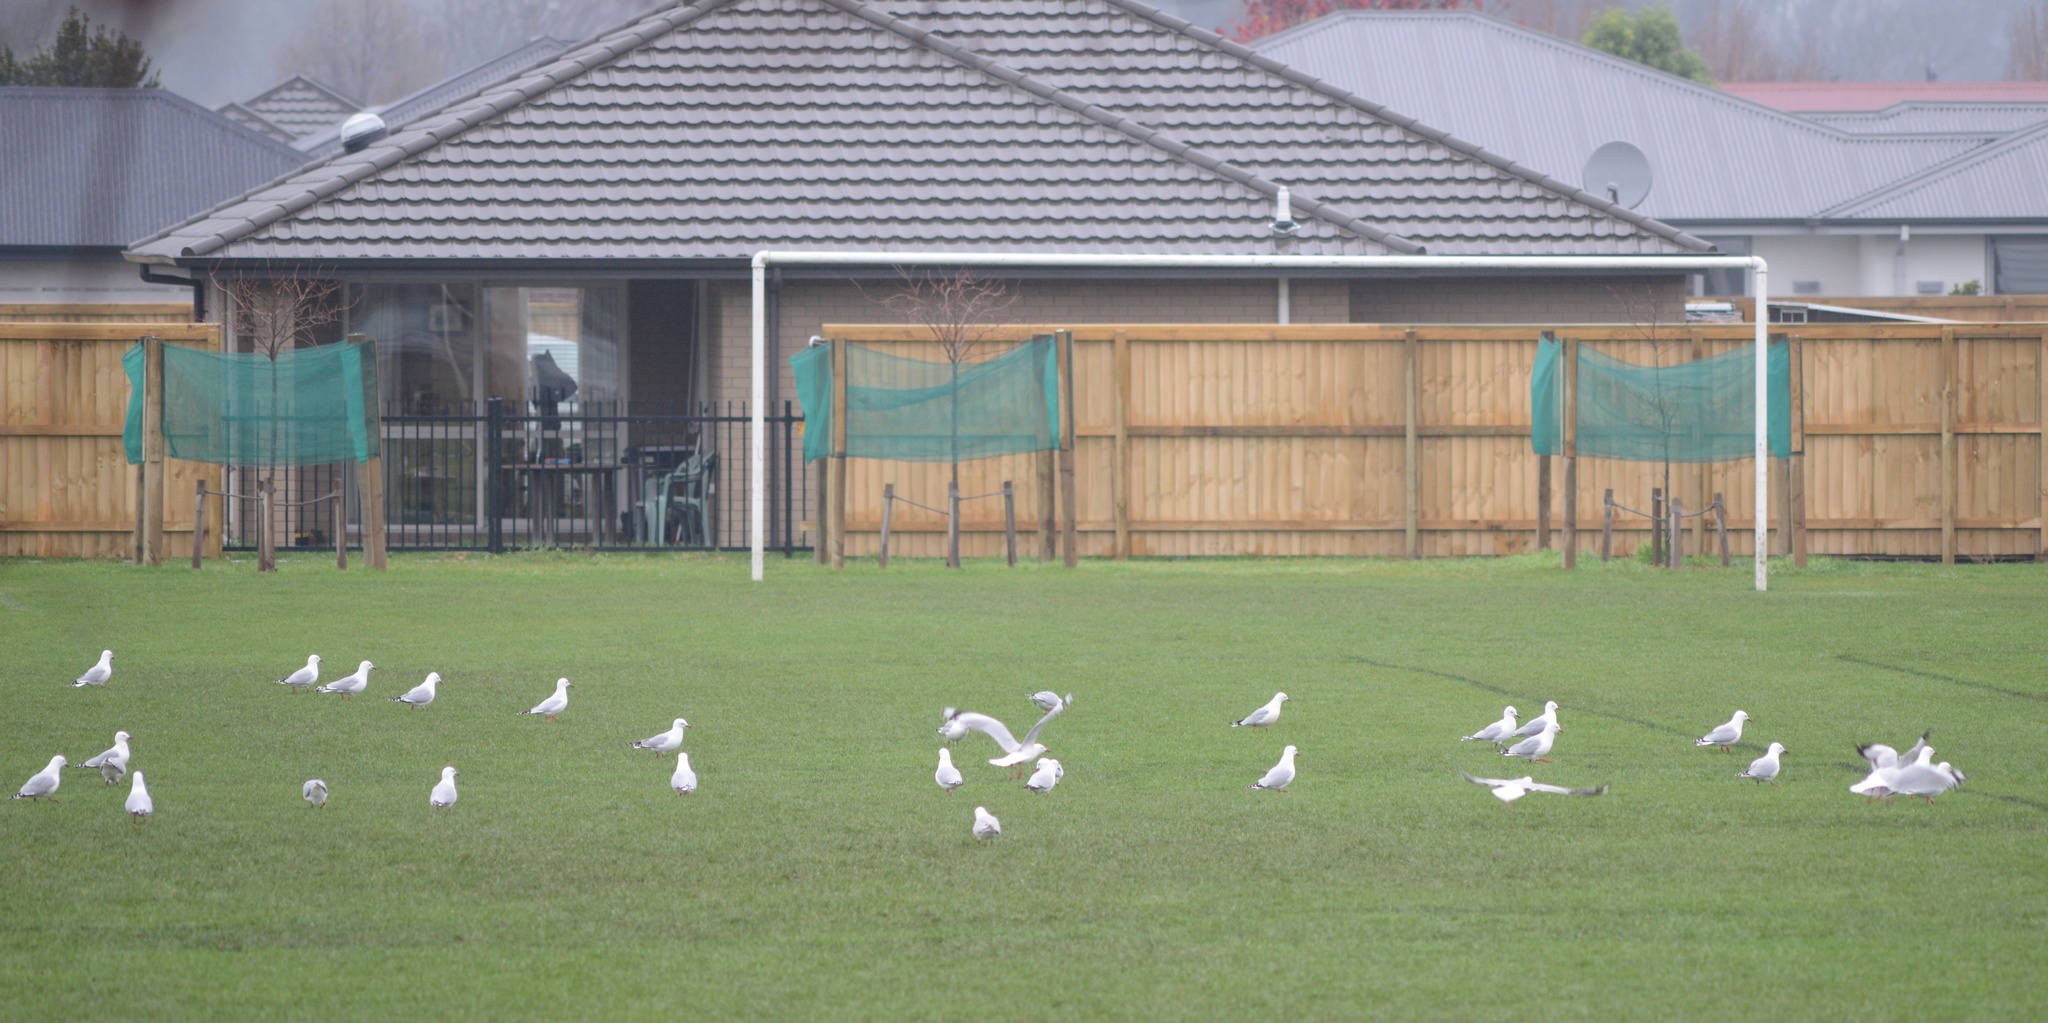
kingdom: Animalia
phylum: Chordata
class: Aves
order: Charadriiformes
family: Laridae
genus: Chroicocephalus
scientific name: Chroicocephalus novaehollandiae
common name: Silver gull
